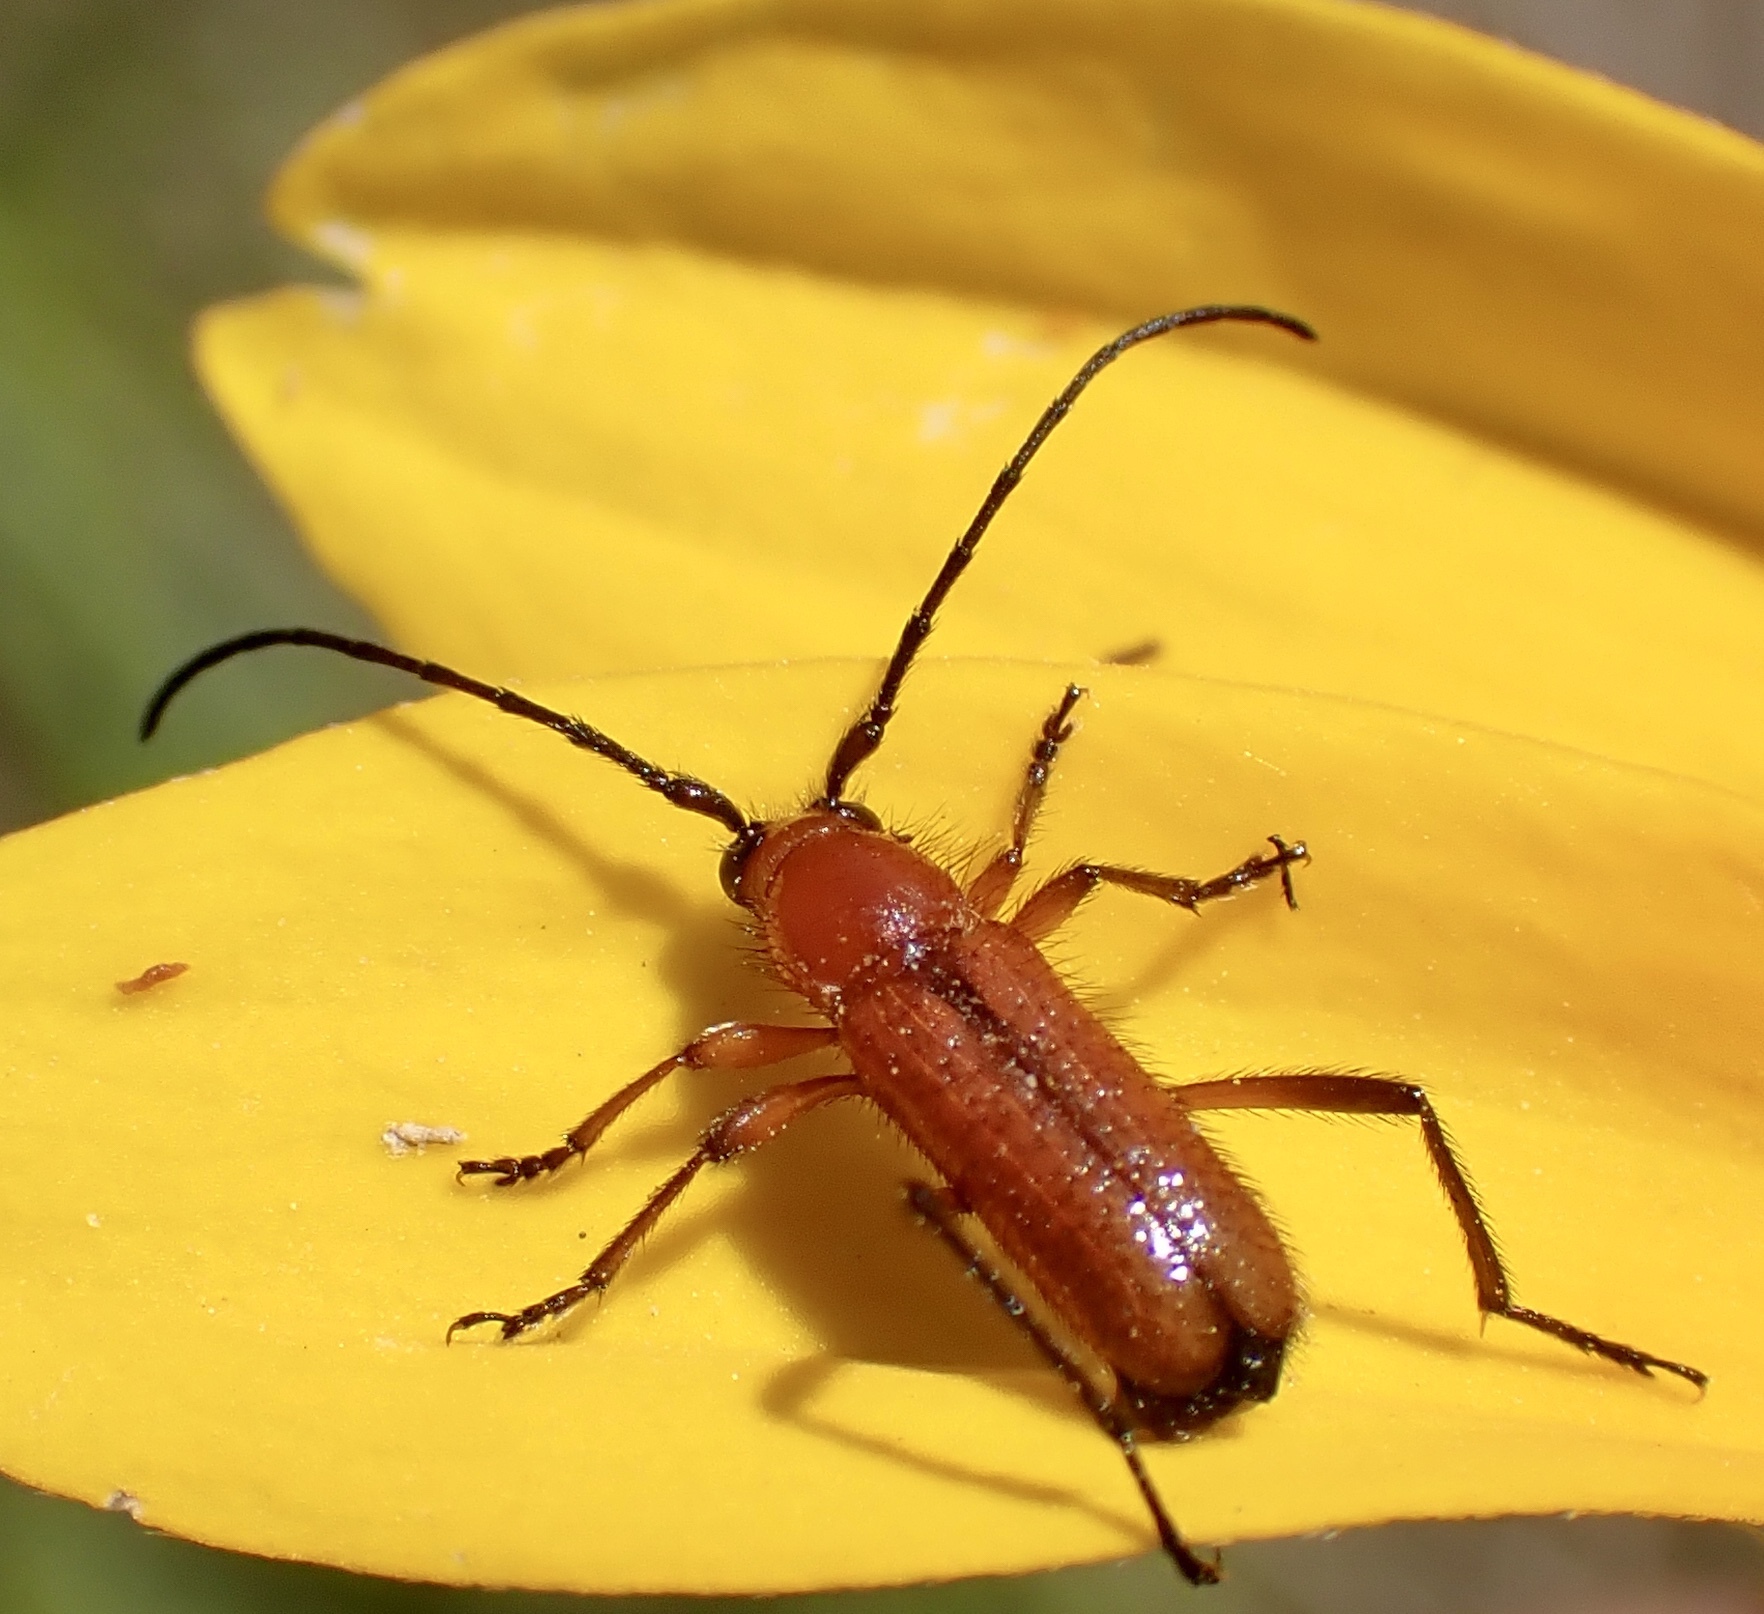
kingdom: Animalia
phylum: Arthropoda
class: Insecta
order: Coleoptera
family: Cerambycidae
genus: Batyle
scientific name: Batyle suturalis
